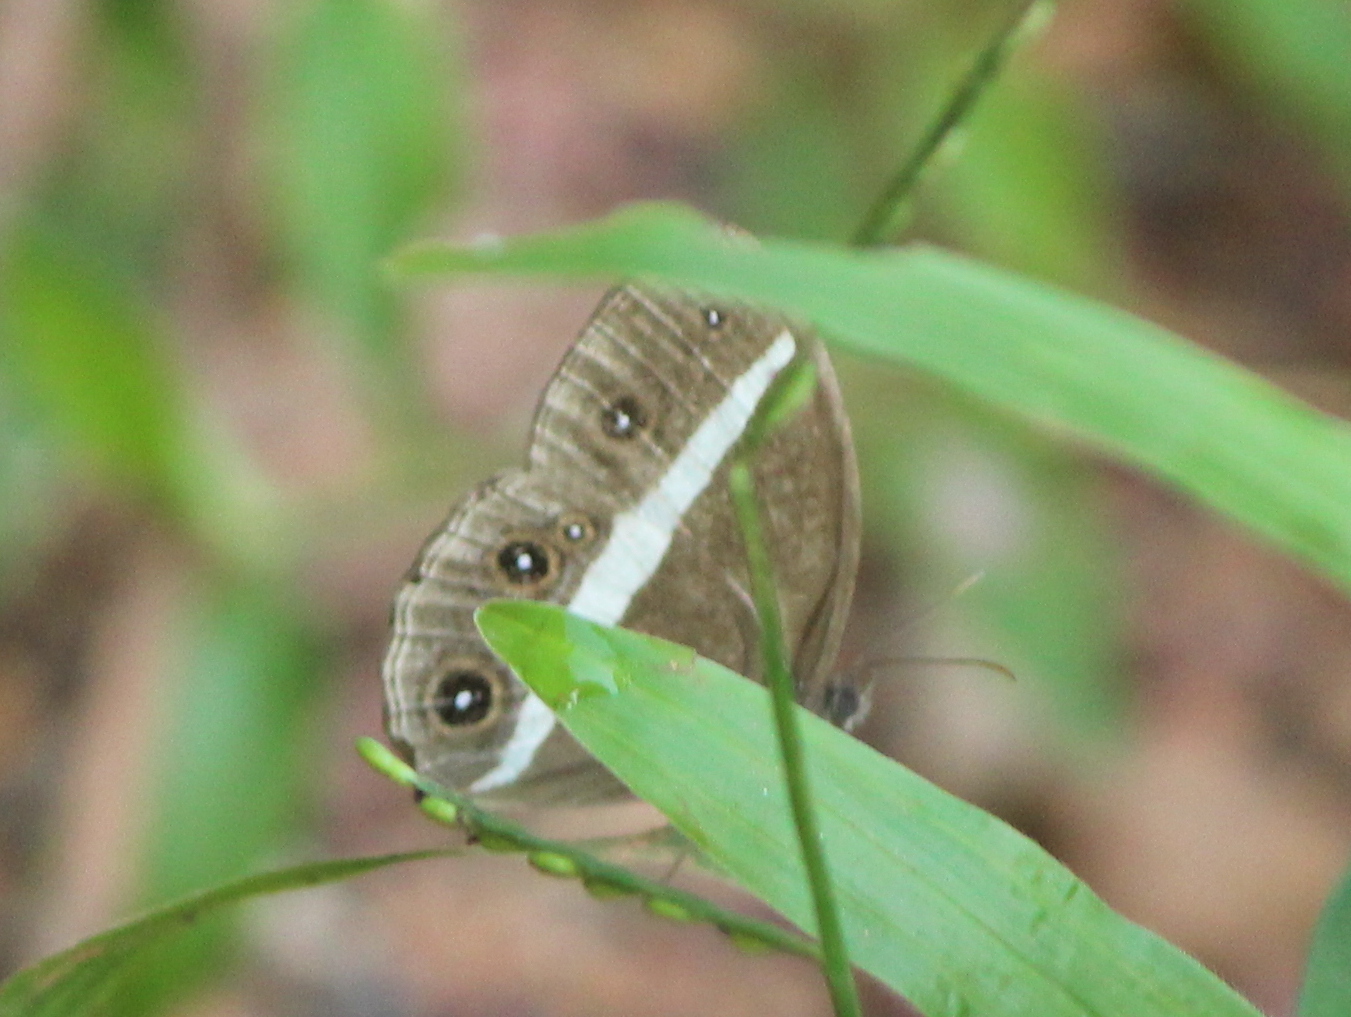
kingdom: Animalia
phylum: Arthropoda
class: Insecta
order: Lepidoptera
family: Nymphalidae
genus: Orsotriaena
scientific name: Orsotriaena medus
